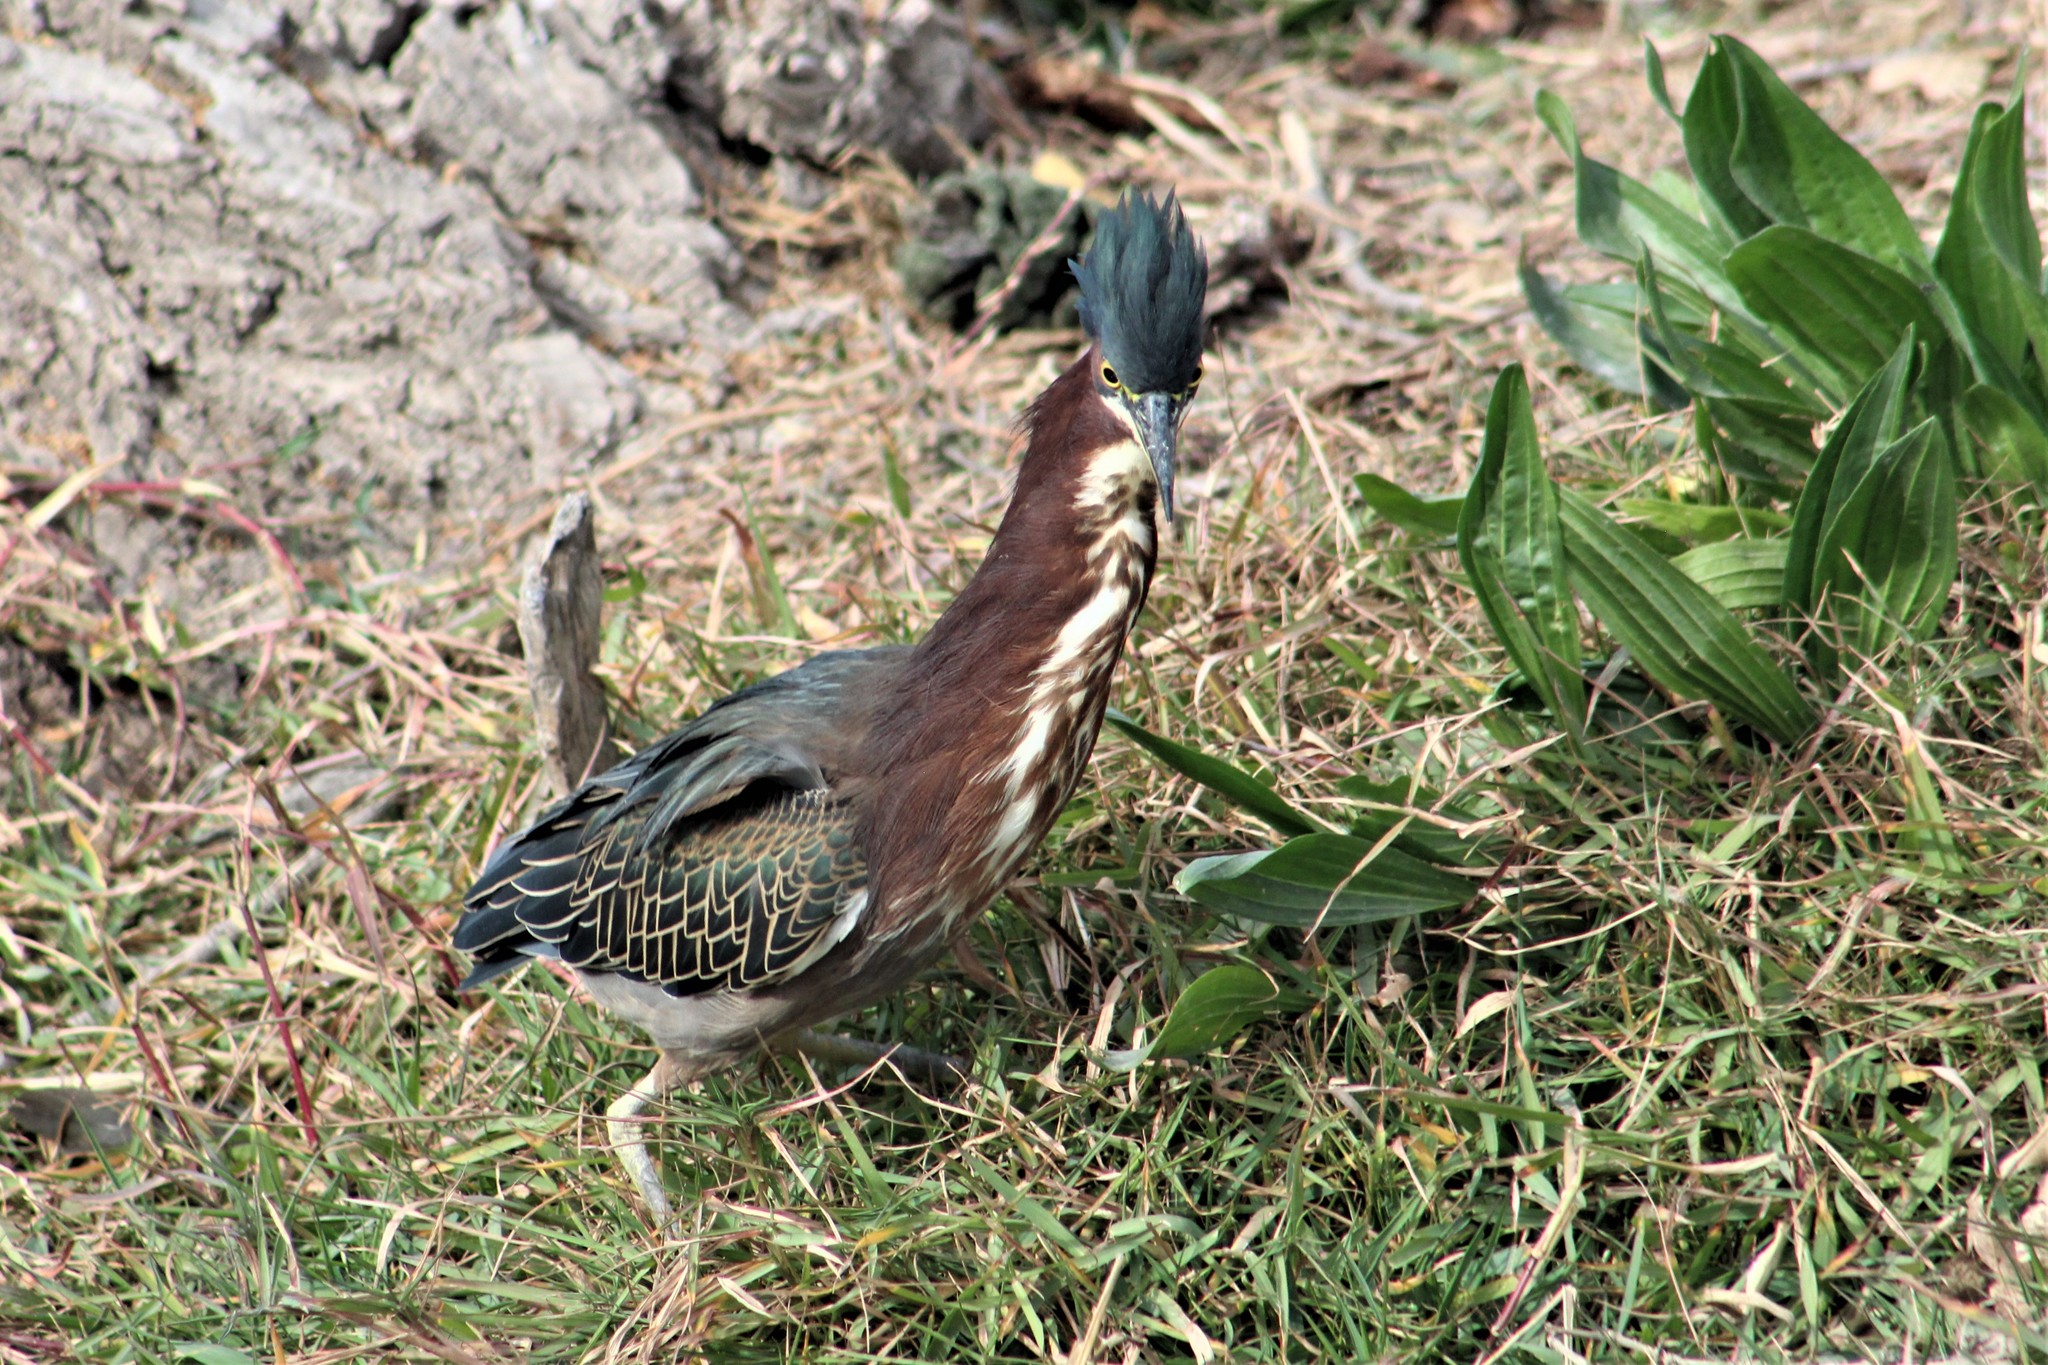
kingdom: Animalia
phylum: Chordata
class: Aves
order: Pelecaniformes
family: Ardeidae
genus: Butorides
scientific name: Butorides virescens
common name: Green heron
